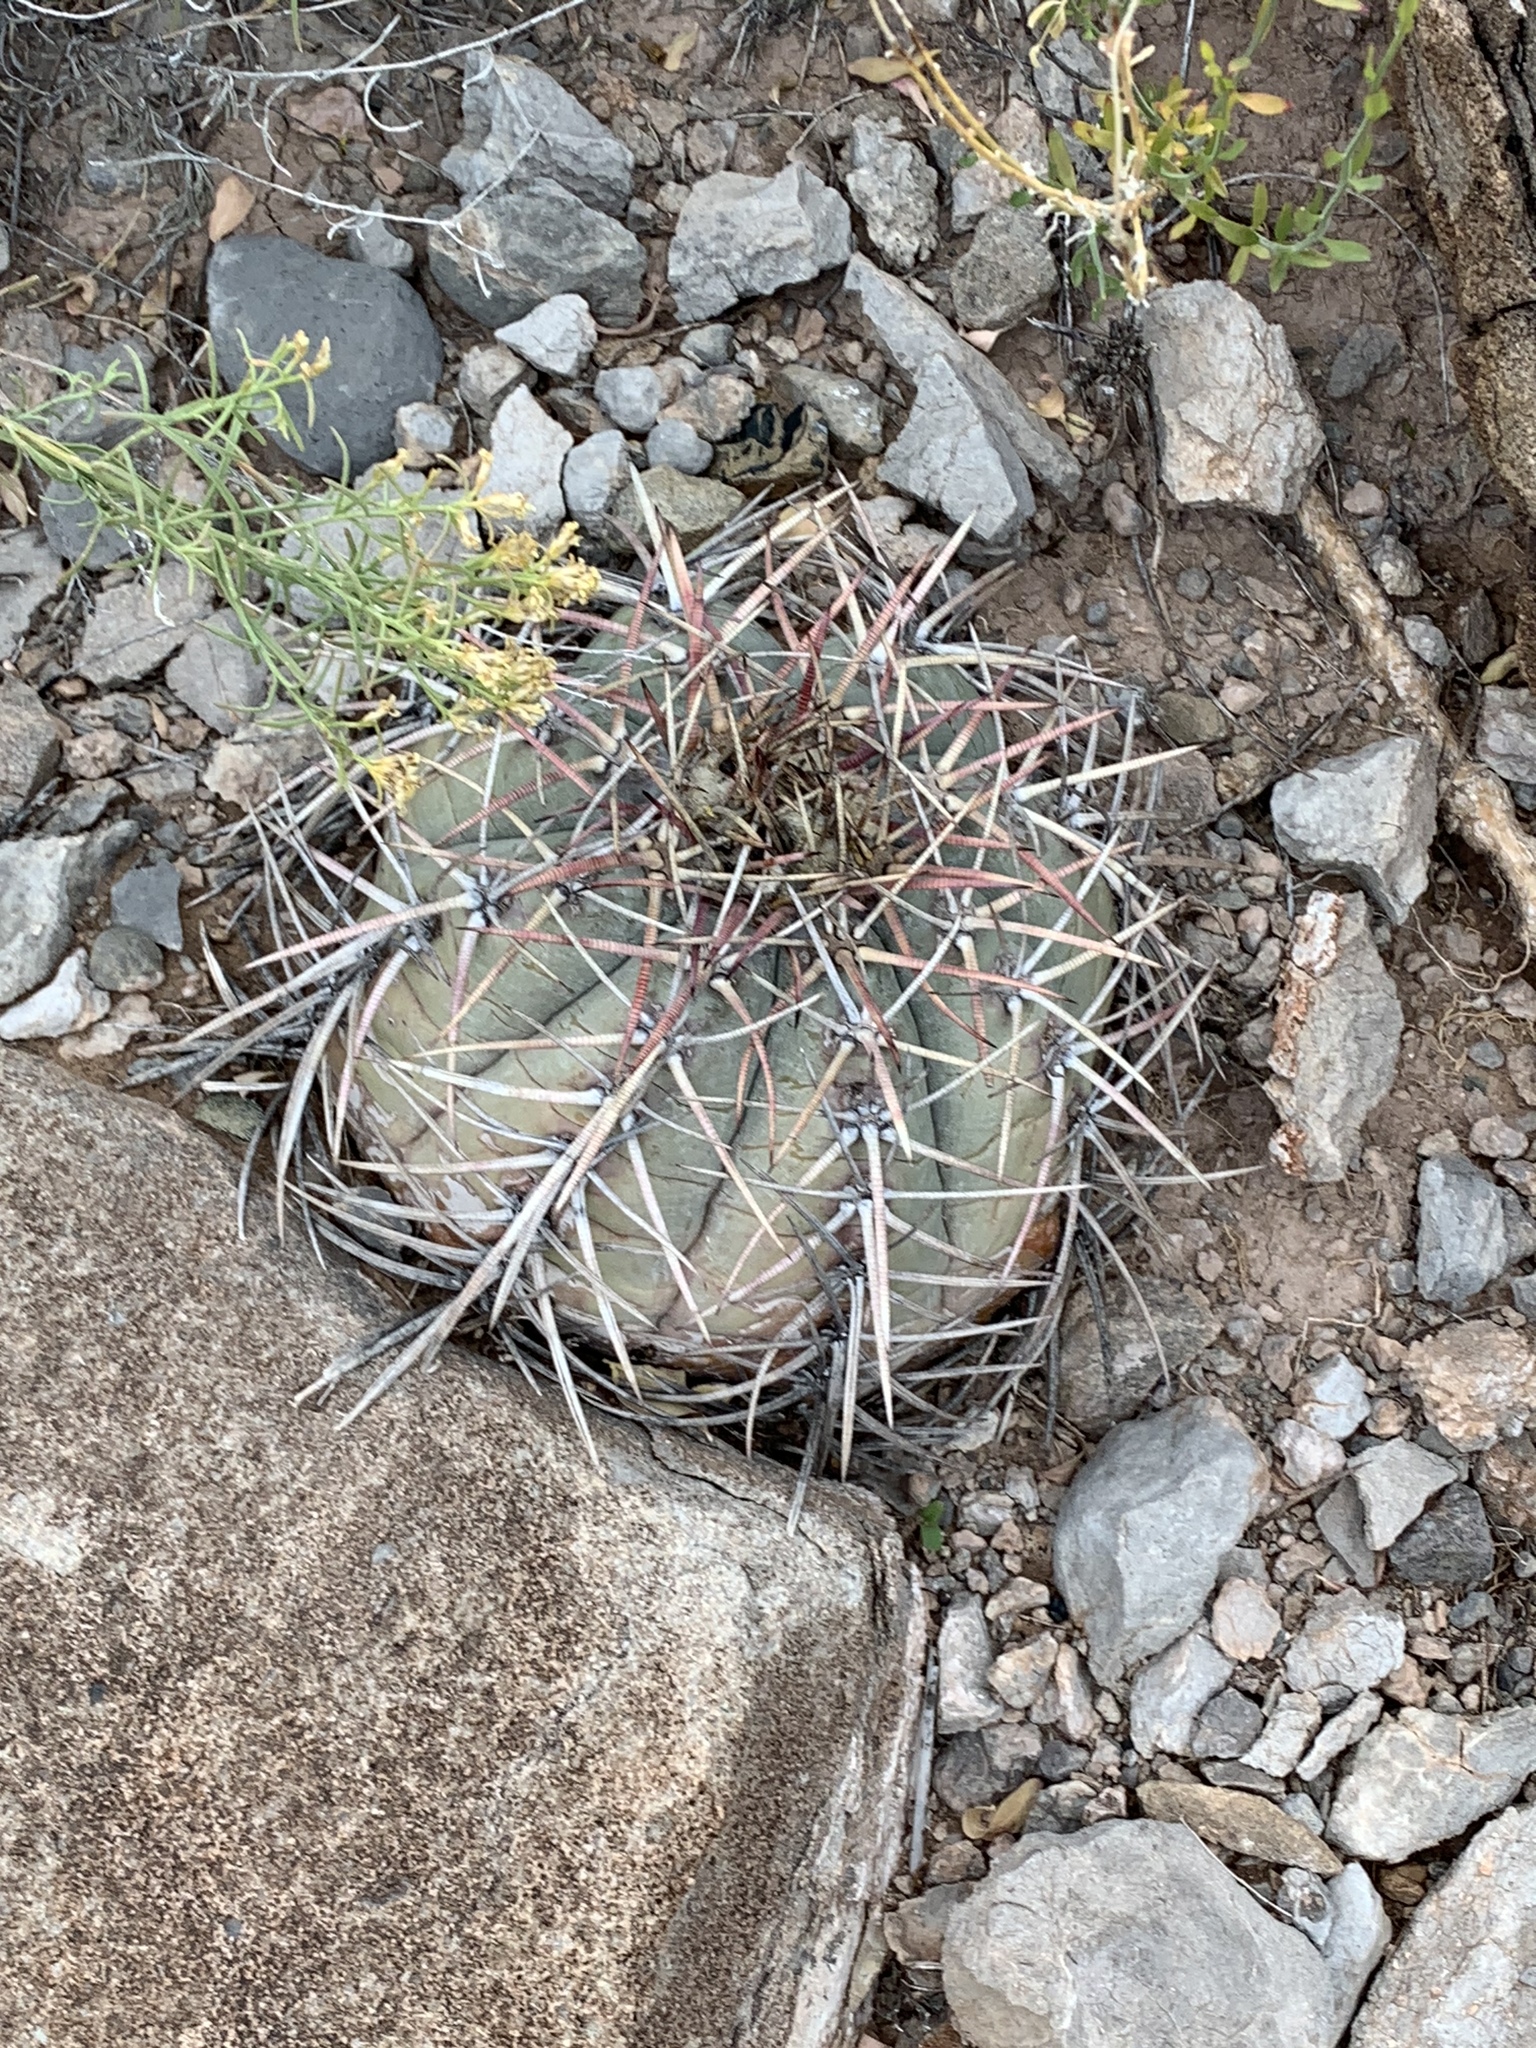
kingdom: Plantae
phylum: Tracheophyta
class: Magnoliopsida
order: Caryophyllales
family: Cactaceae
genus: Echinocactus
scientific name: Echinocactus horizonthalonius
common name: Devilshead
